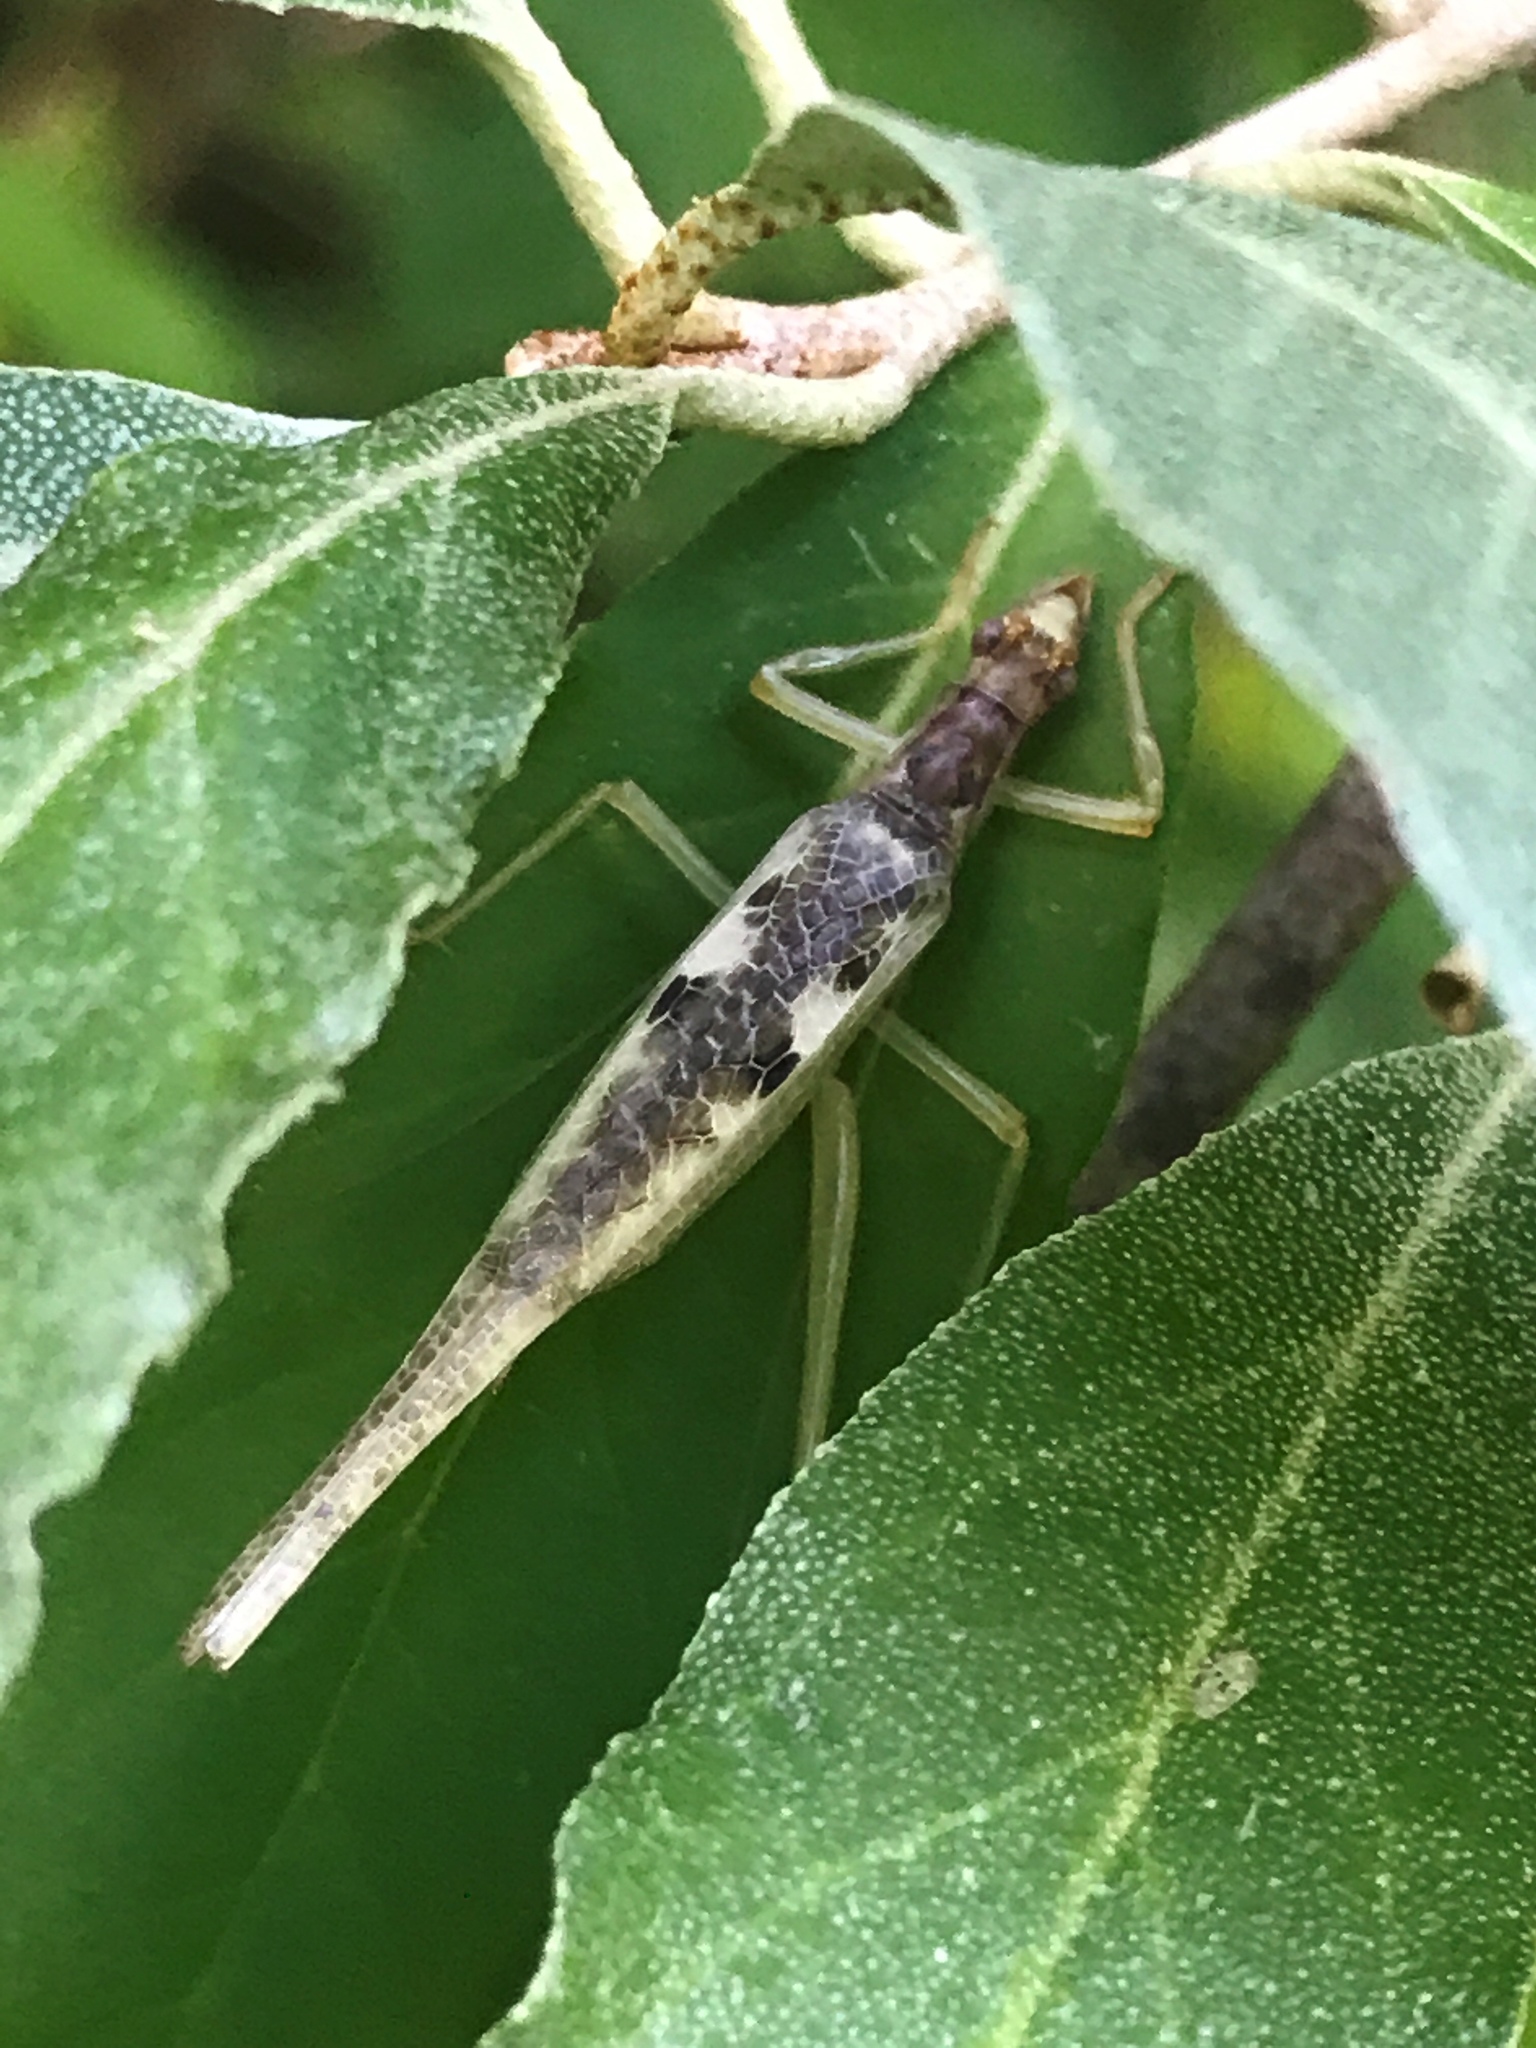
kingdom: Animalia
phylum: Arthropoda
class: Insecta
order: Orthoptera
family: Gryllidae
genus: Neoxabea
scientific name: Neoxabea bipunctata
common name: Two-spotted tree cricket
